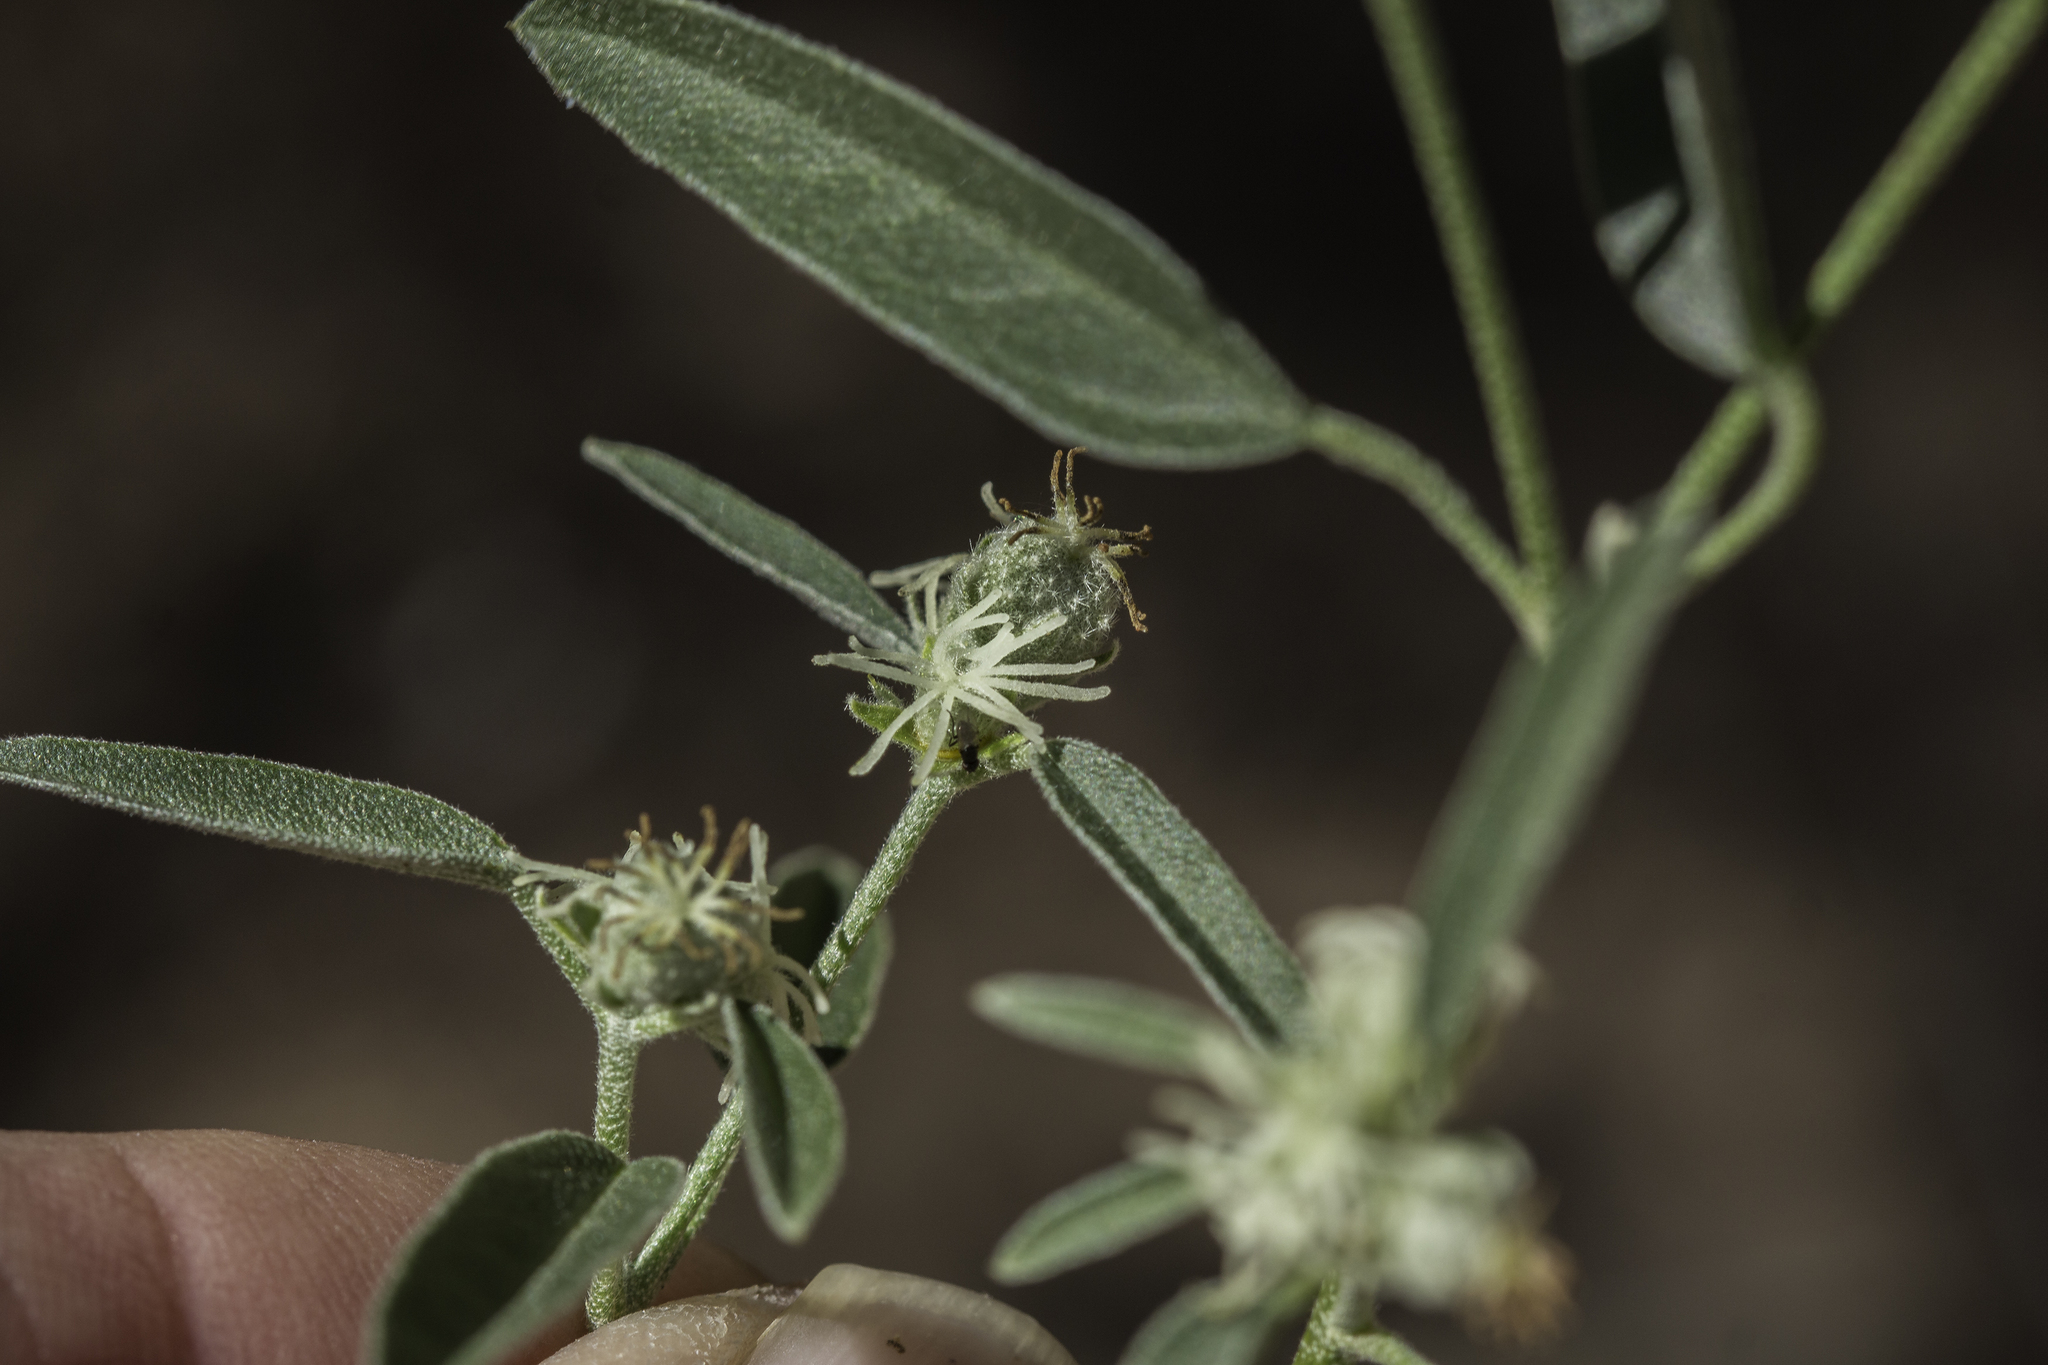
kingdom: Plantae
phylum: Tracheophyta
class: Magnoliopsida
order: Malpighiales
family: Euphorbiaceae
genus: Croton
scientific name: Croton texensis
